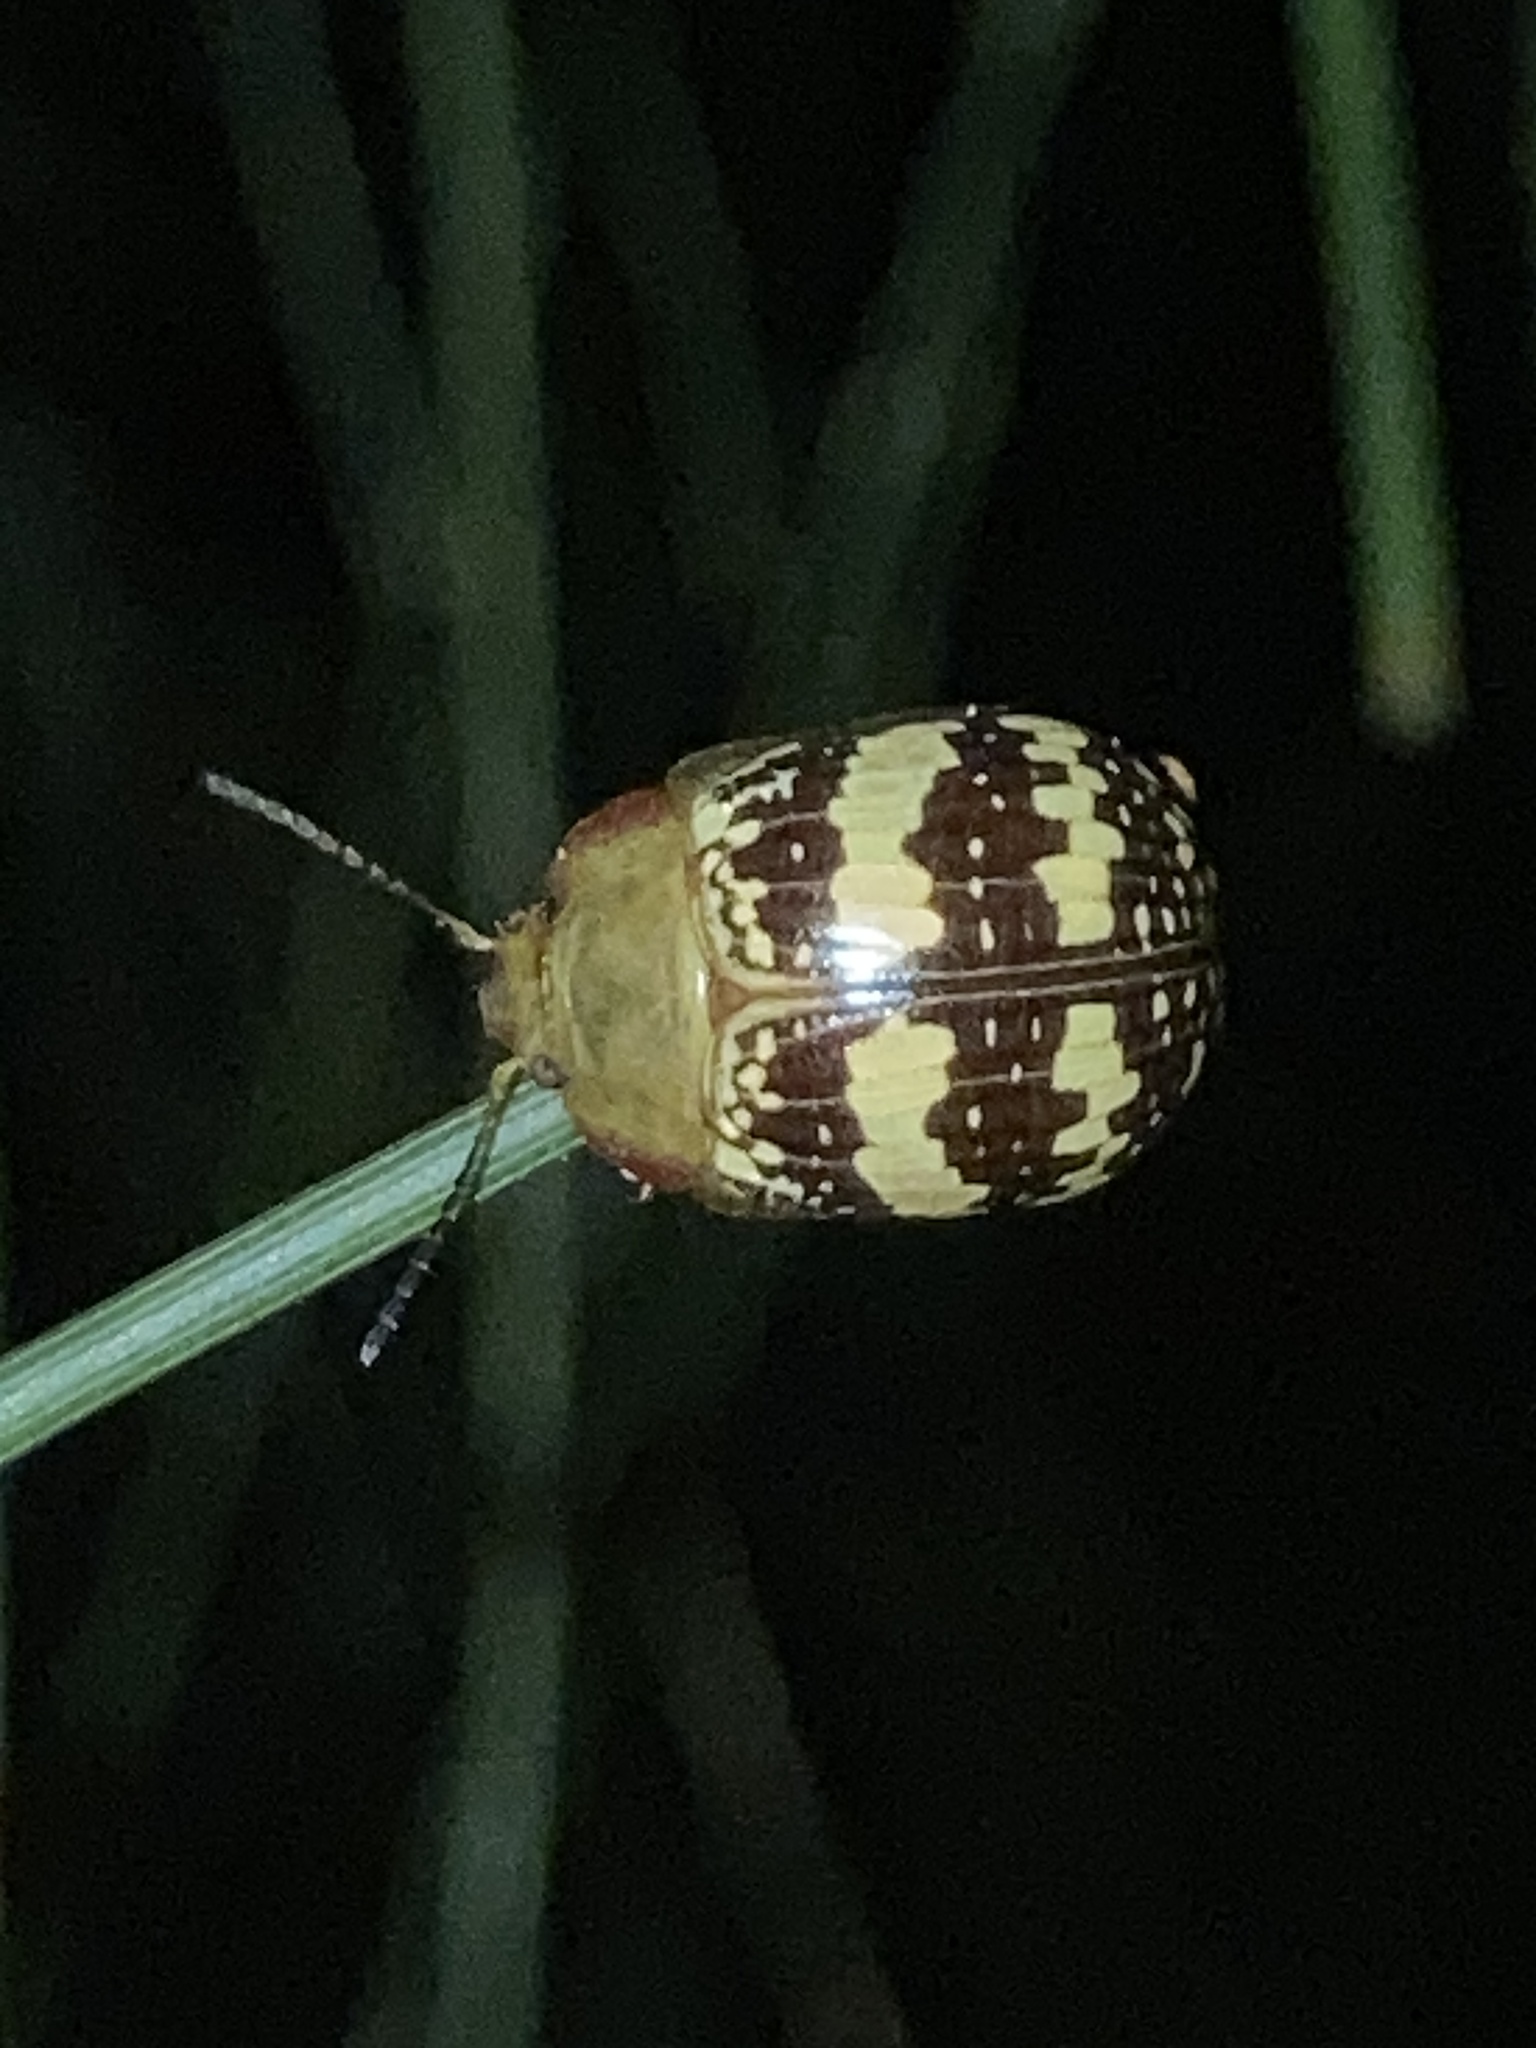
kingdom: Animalia
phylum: Arthropoda
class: Insecta
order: Coleoptera
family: Chrysomelidae
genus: Paropsis
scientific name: Paropsis
